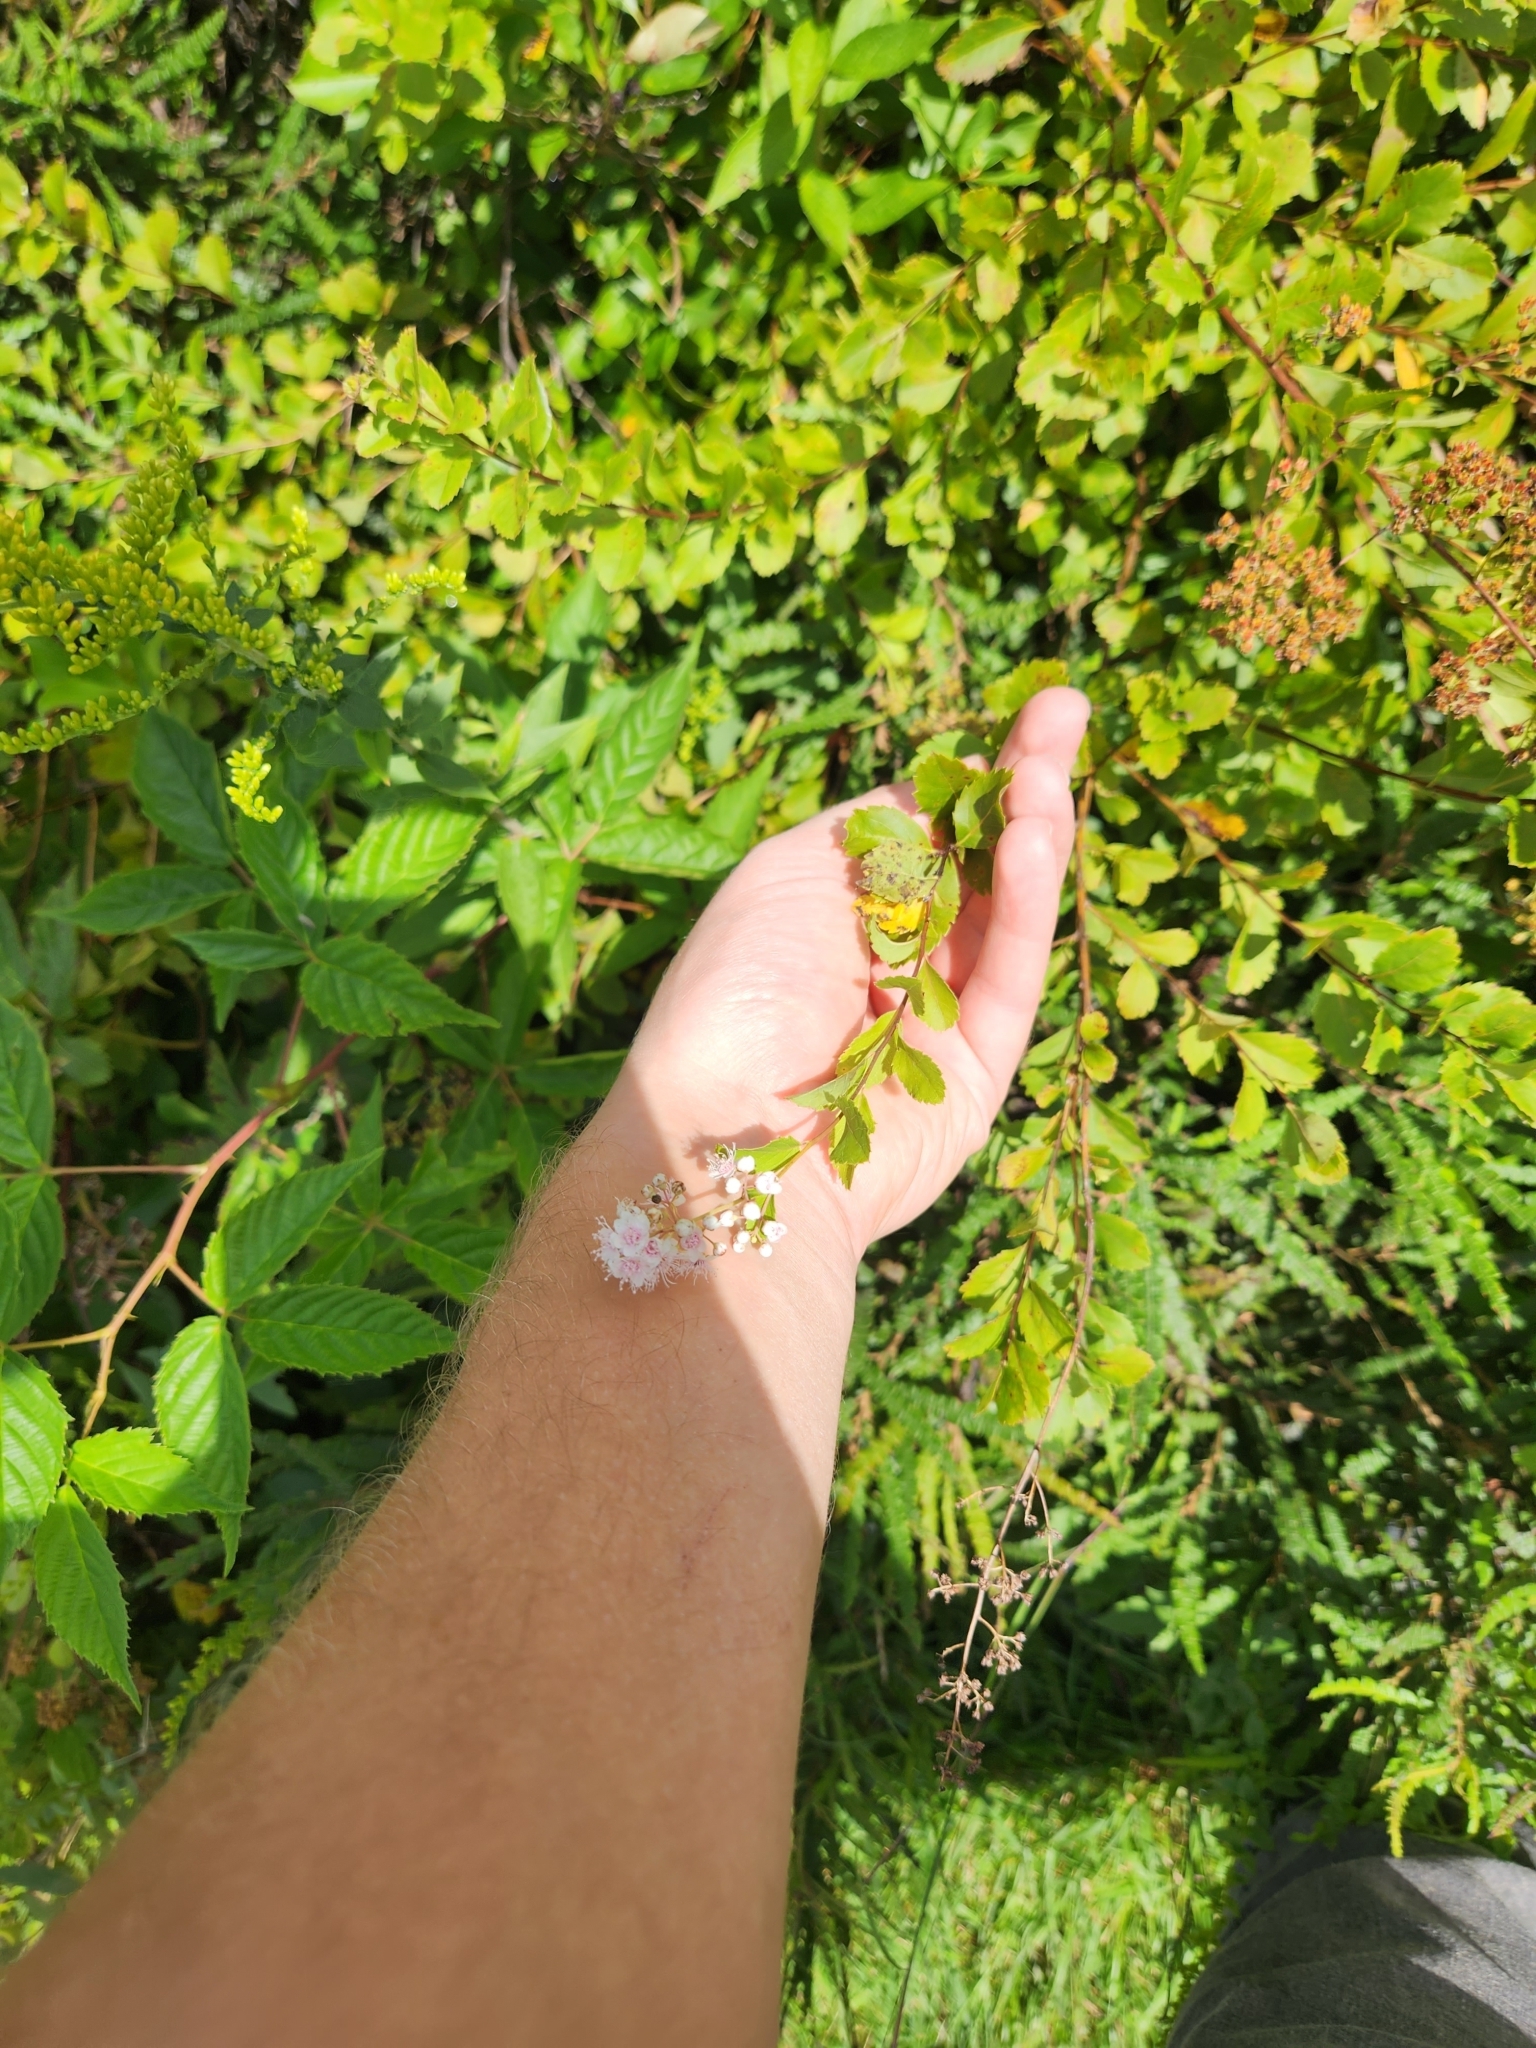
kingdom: Plantae
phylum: Tracheophyta
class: Magnoliopsida
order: Rosales
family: Rosaceae
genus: Spiraea
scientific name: Spiraea alba
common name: Pale bridewort
